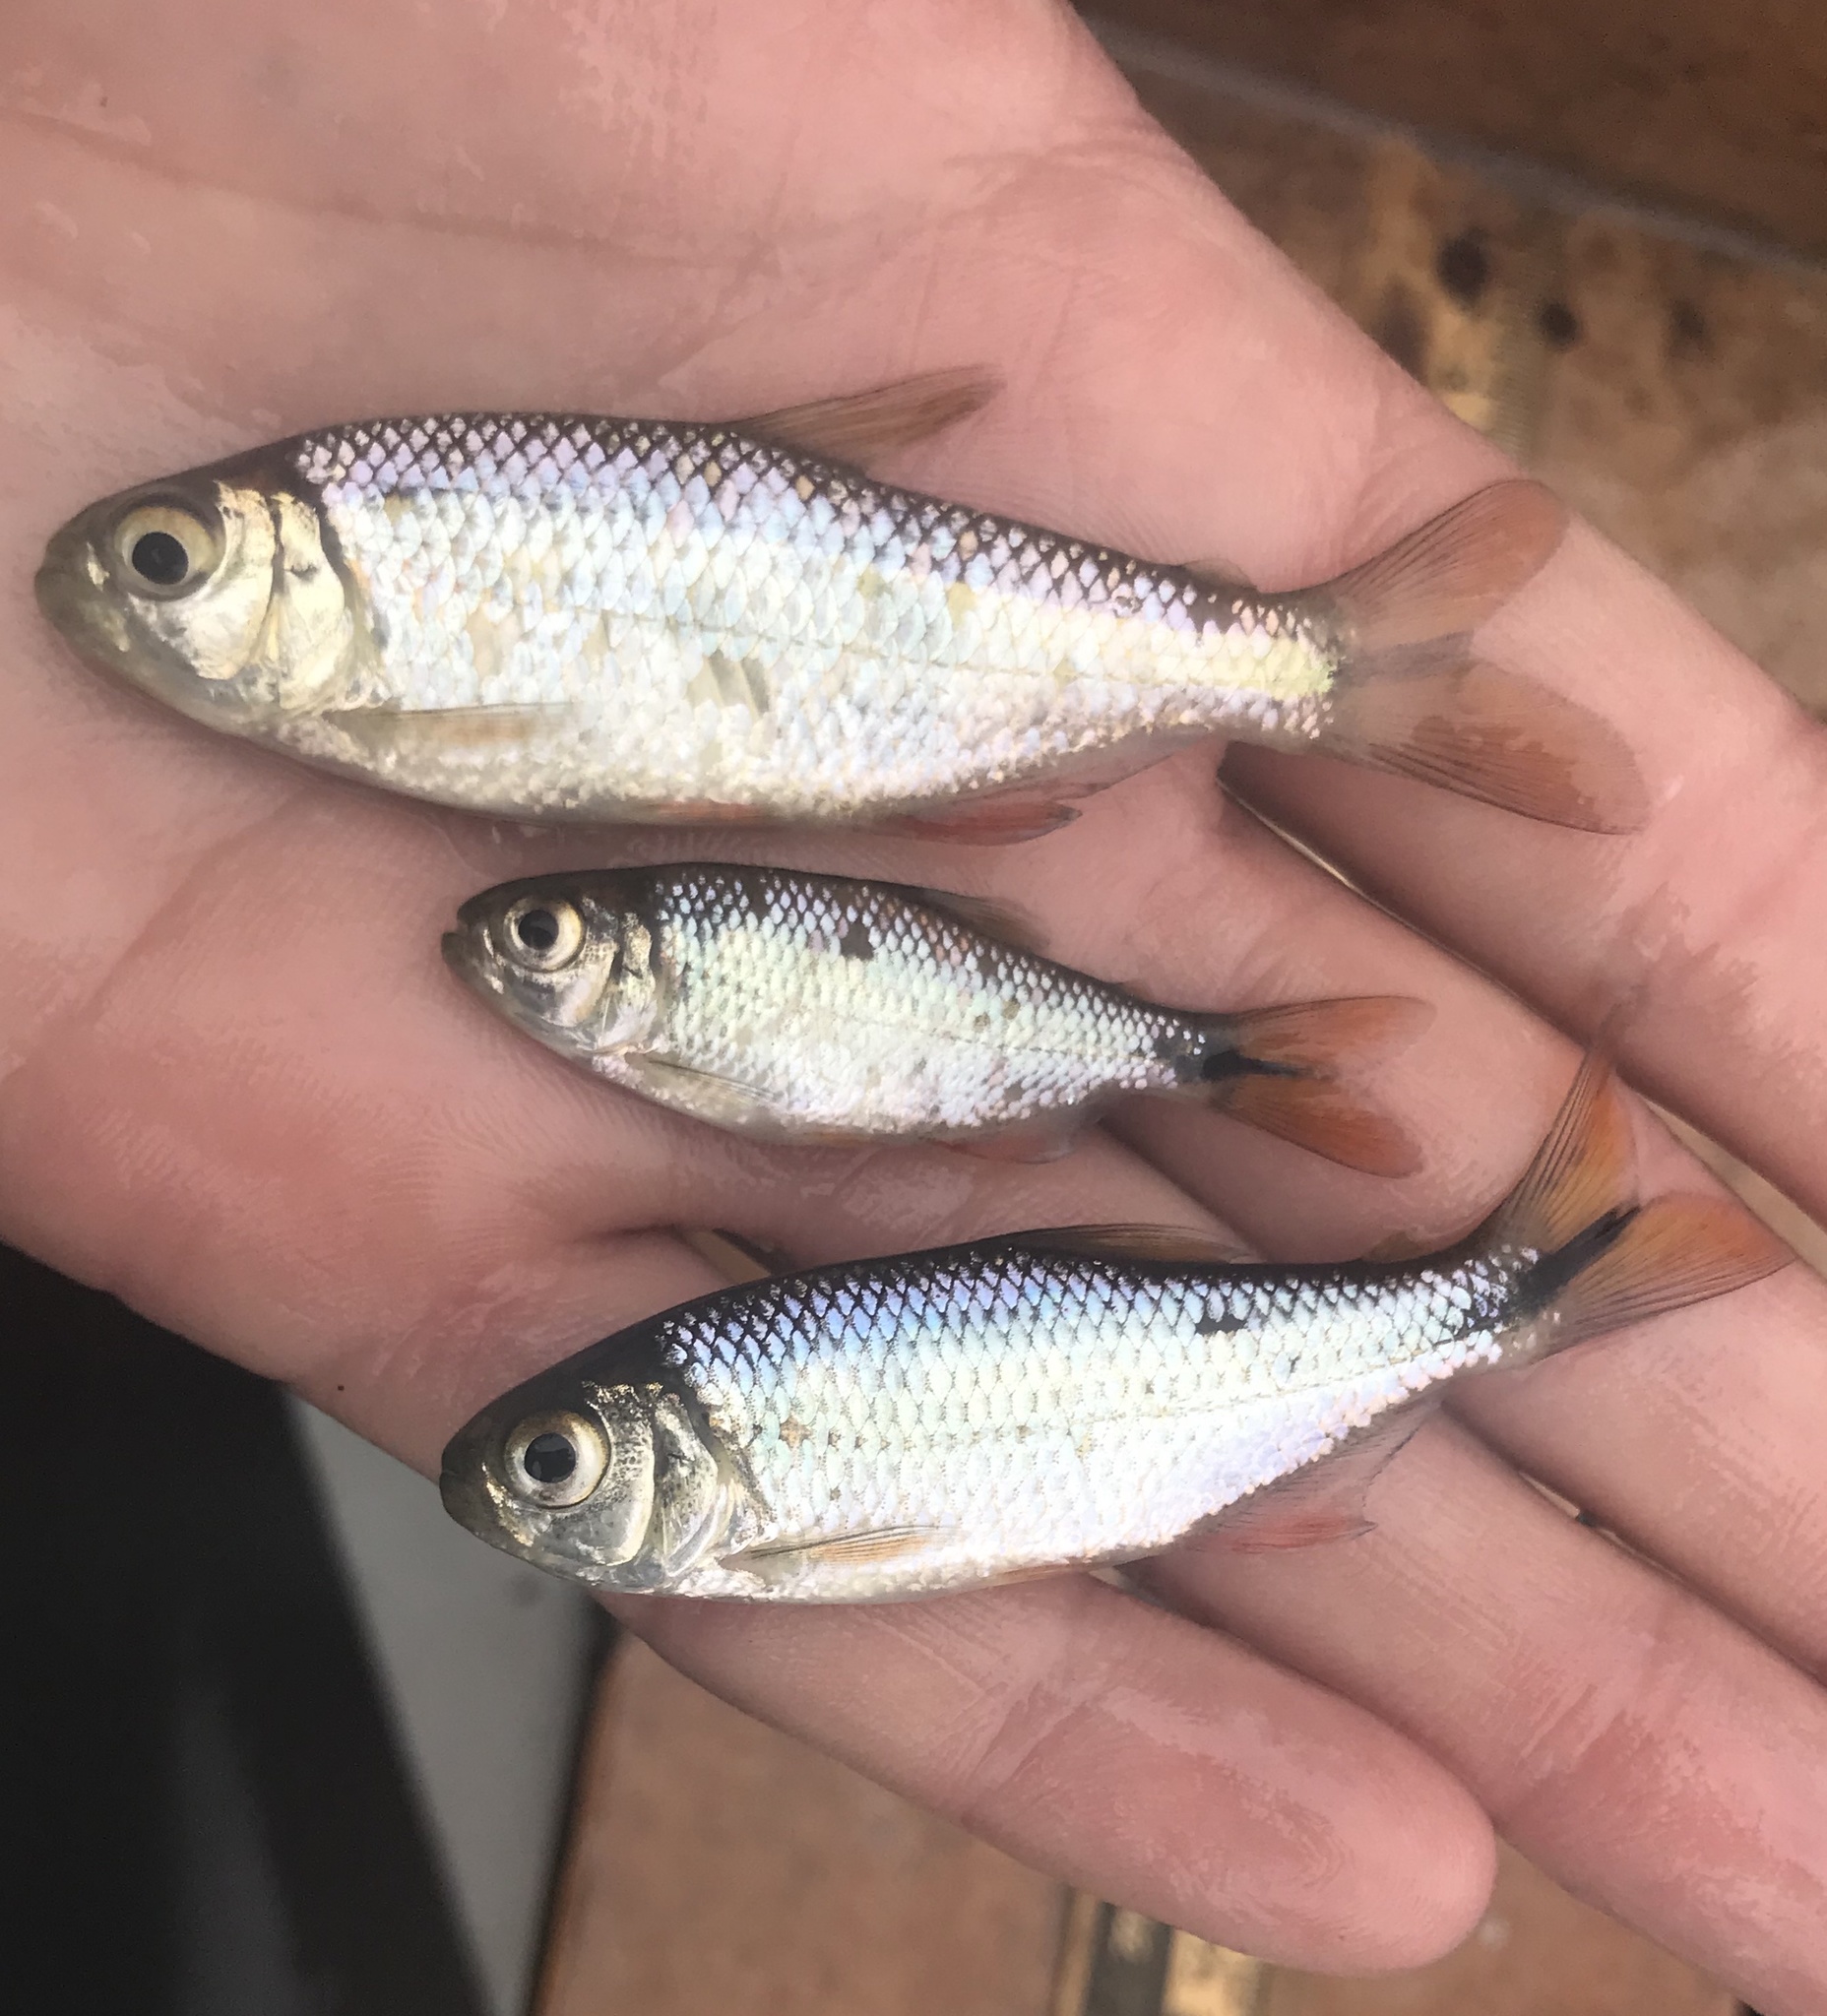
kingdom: Animalia
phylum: Chordata
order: Characiformes
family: Characidae
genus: Astyanax
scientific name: Astyanax mexicanus
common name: Mexican tetra
